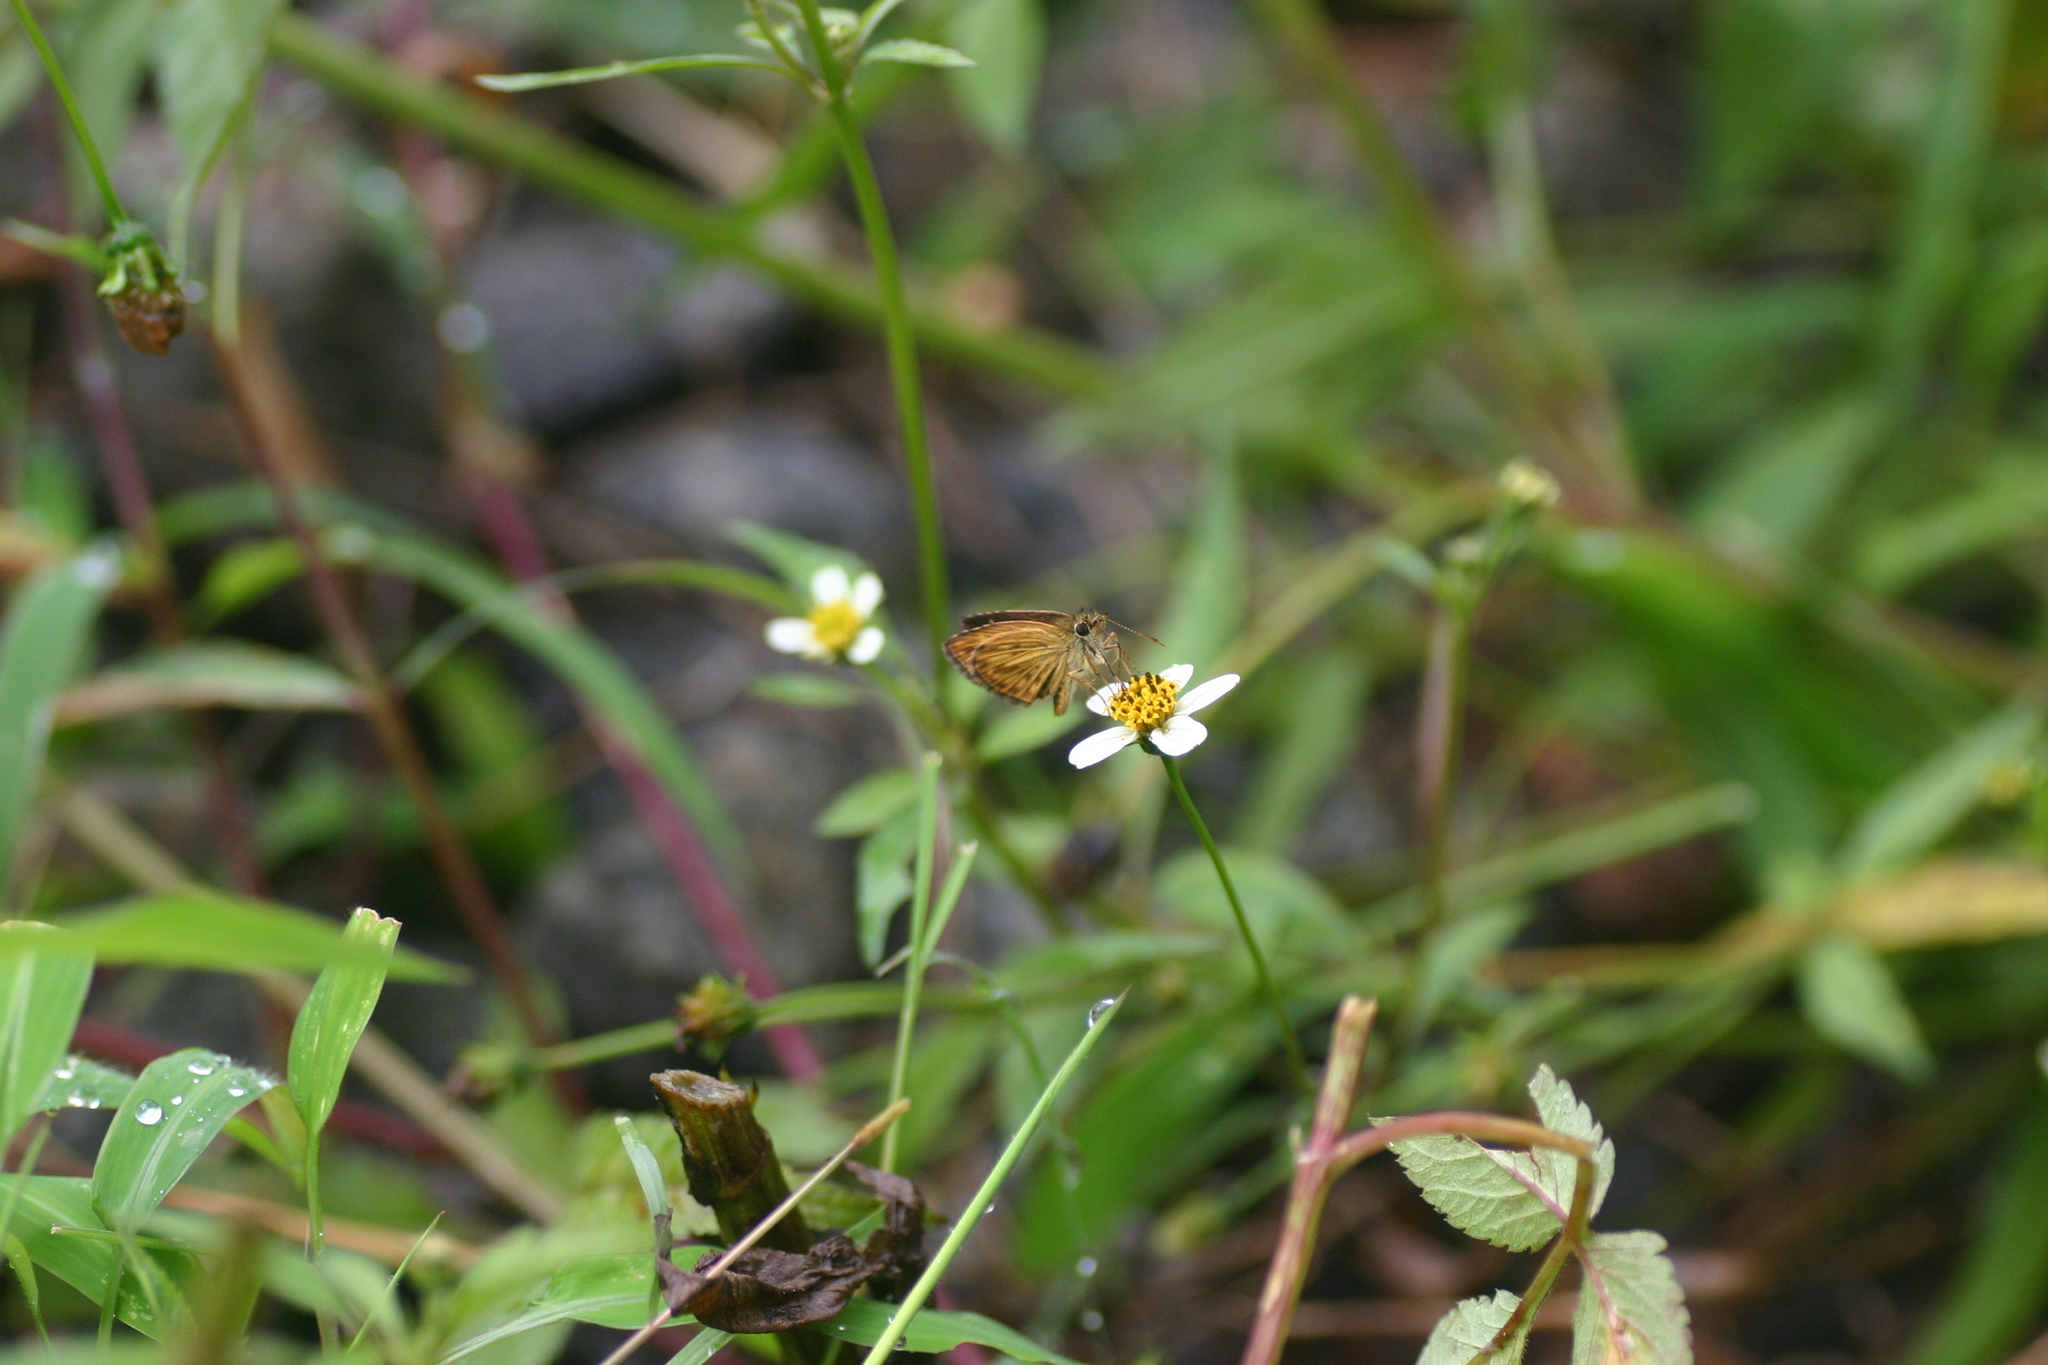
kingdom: Animalia
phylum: Arthropoda
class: Insecta
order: Lepidoptera
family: Hesperiidae
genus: Baracus
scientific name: Baracus vittatus
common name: Hedge-hopper
